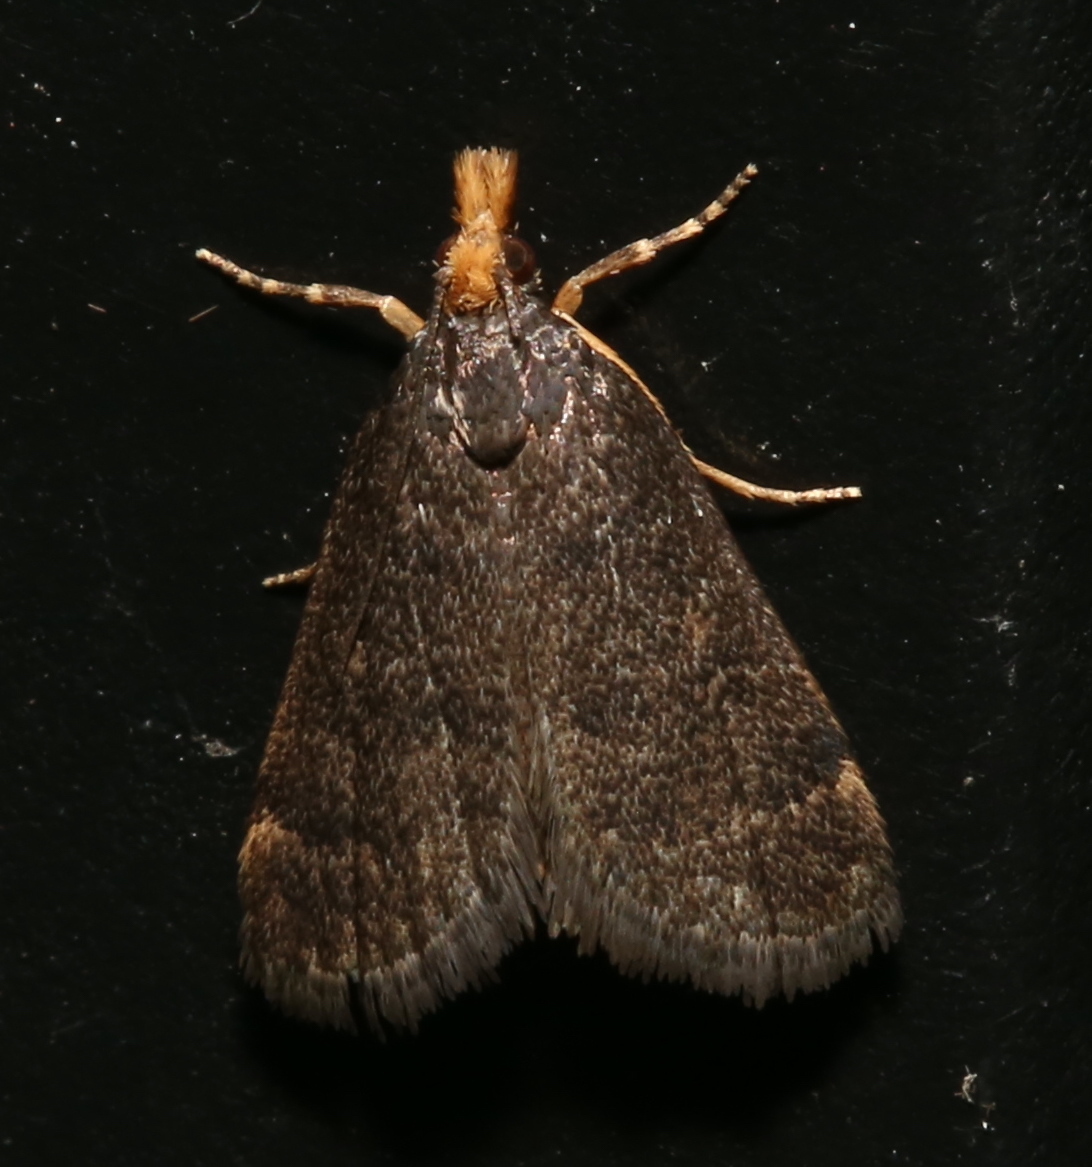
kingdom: Animalia
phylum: Arthropoda
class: Insecta
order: Lepidoptera
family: Crambidae
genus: Pyrausta
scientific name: Pyrausta merrickalis
